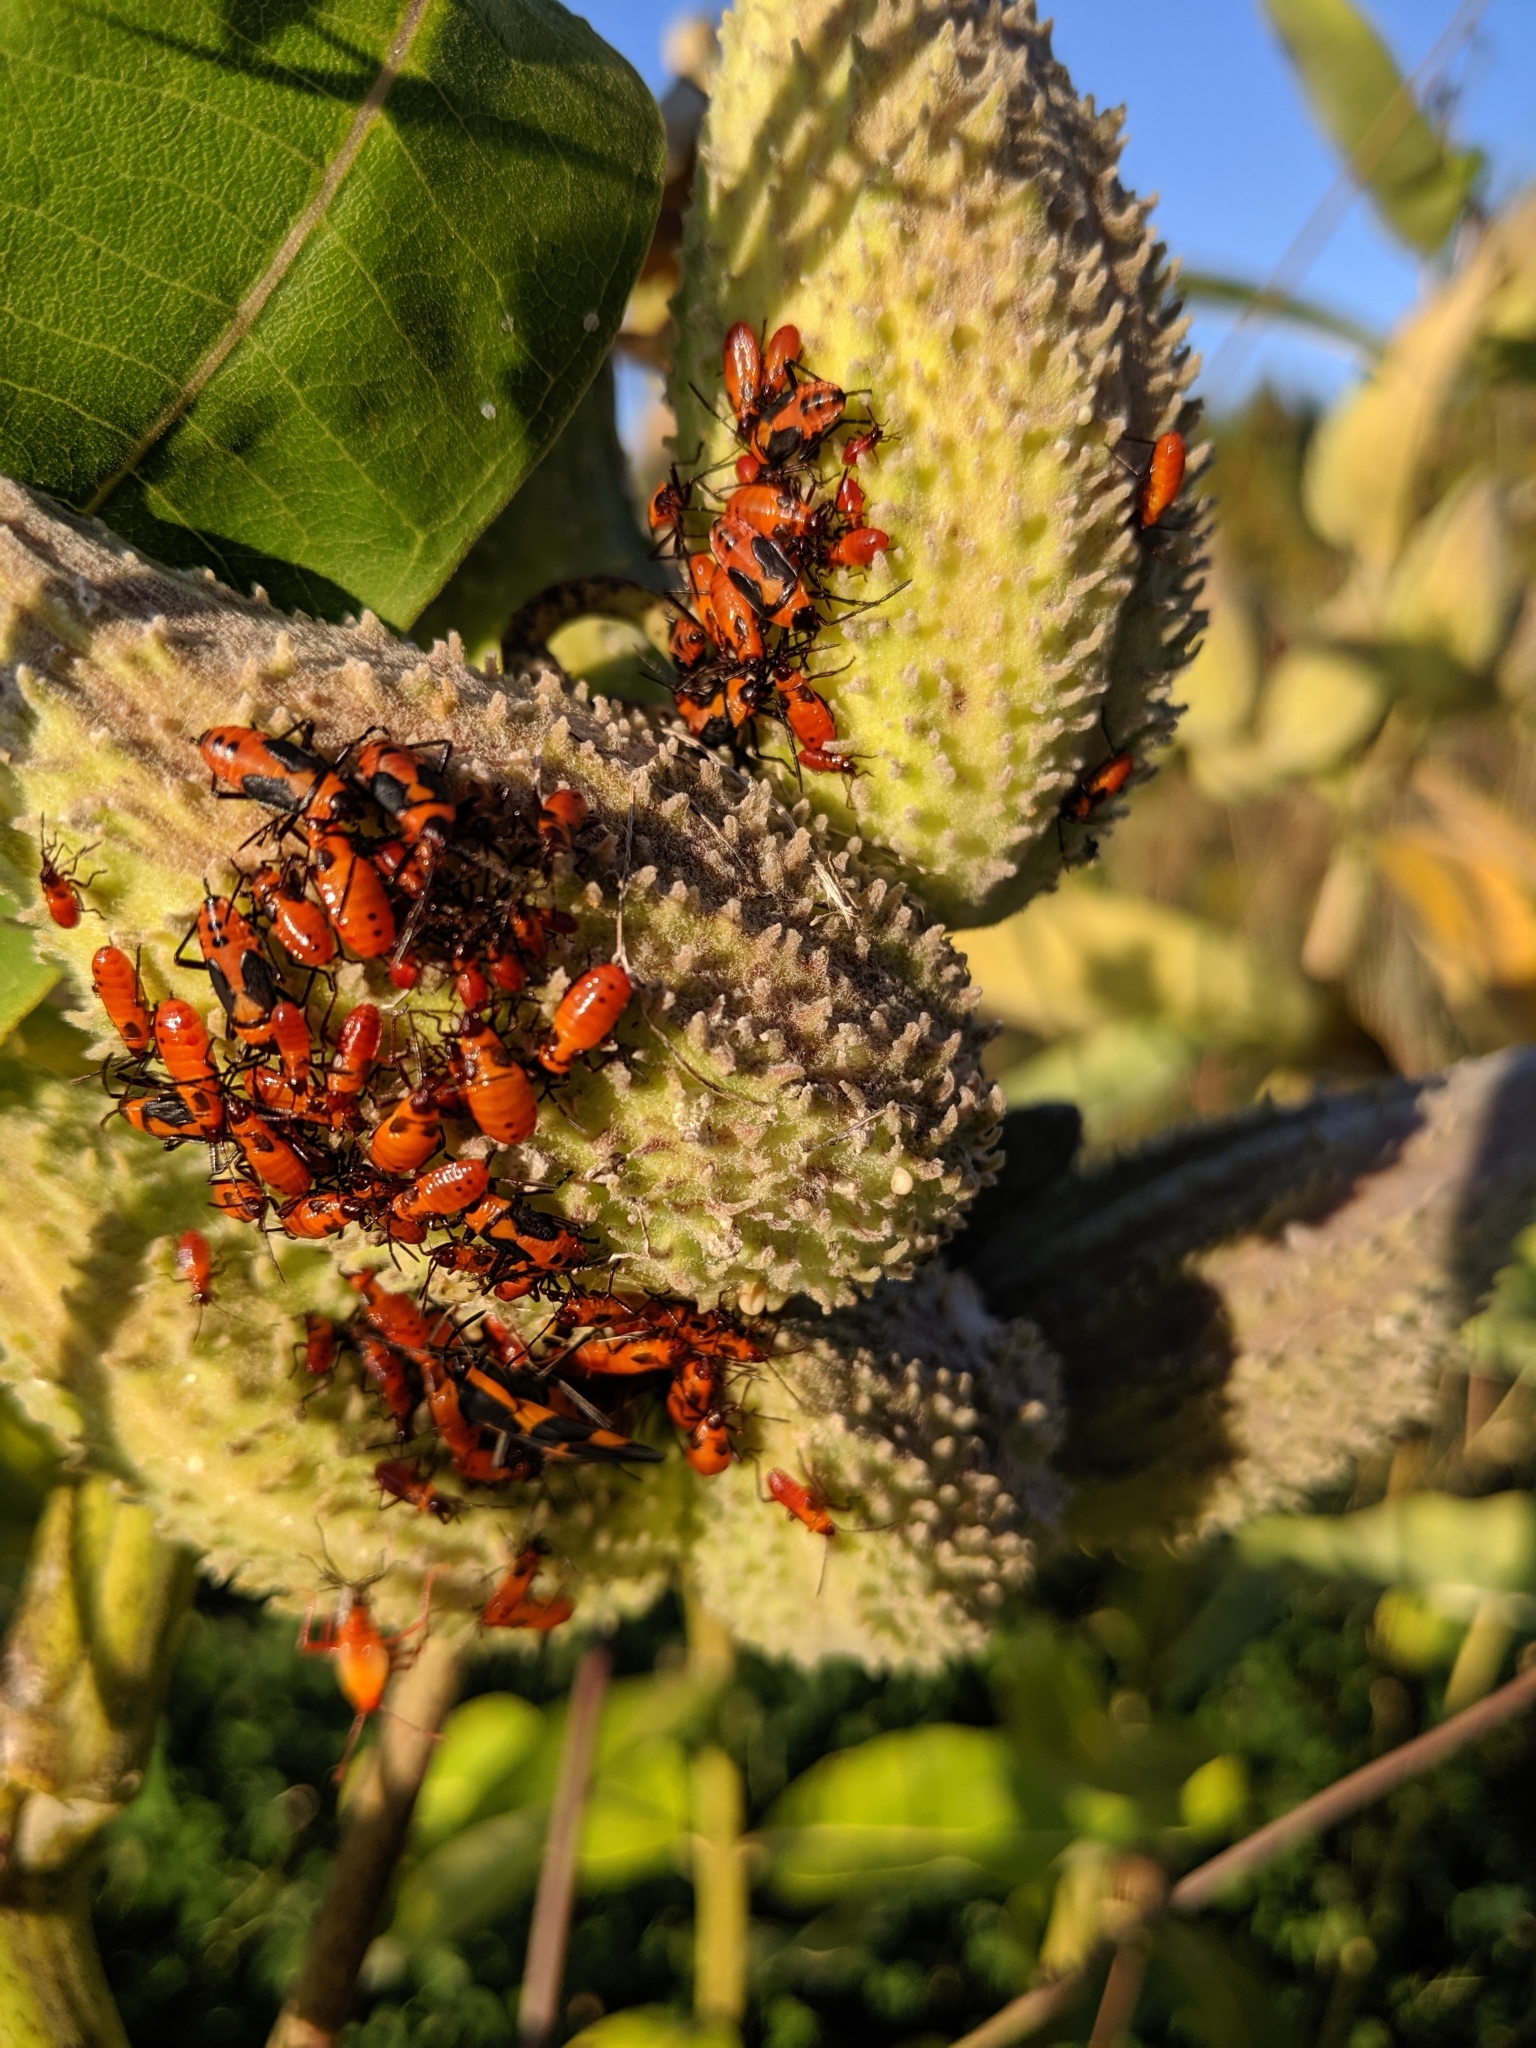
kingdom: Animalia
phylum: Arthropoda
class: Insecta
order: Hemiptera
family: Lygaeidae
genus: Oncopeltus
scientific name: Oncopeltus fasciatus
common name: Large milkweed bug
